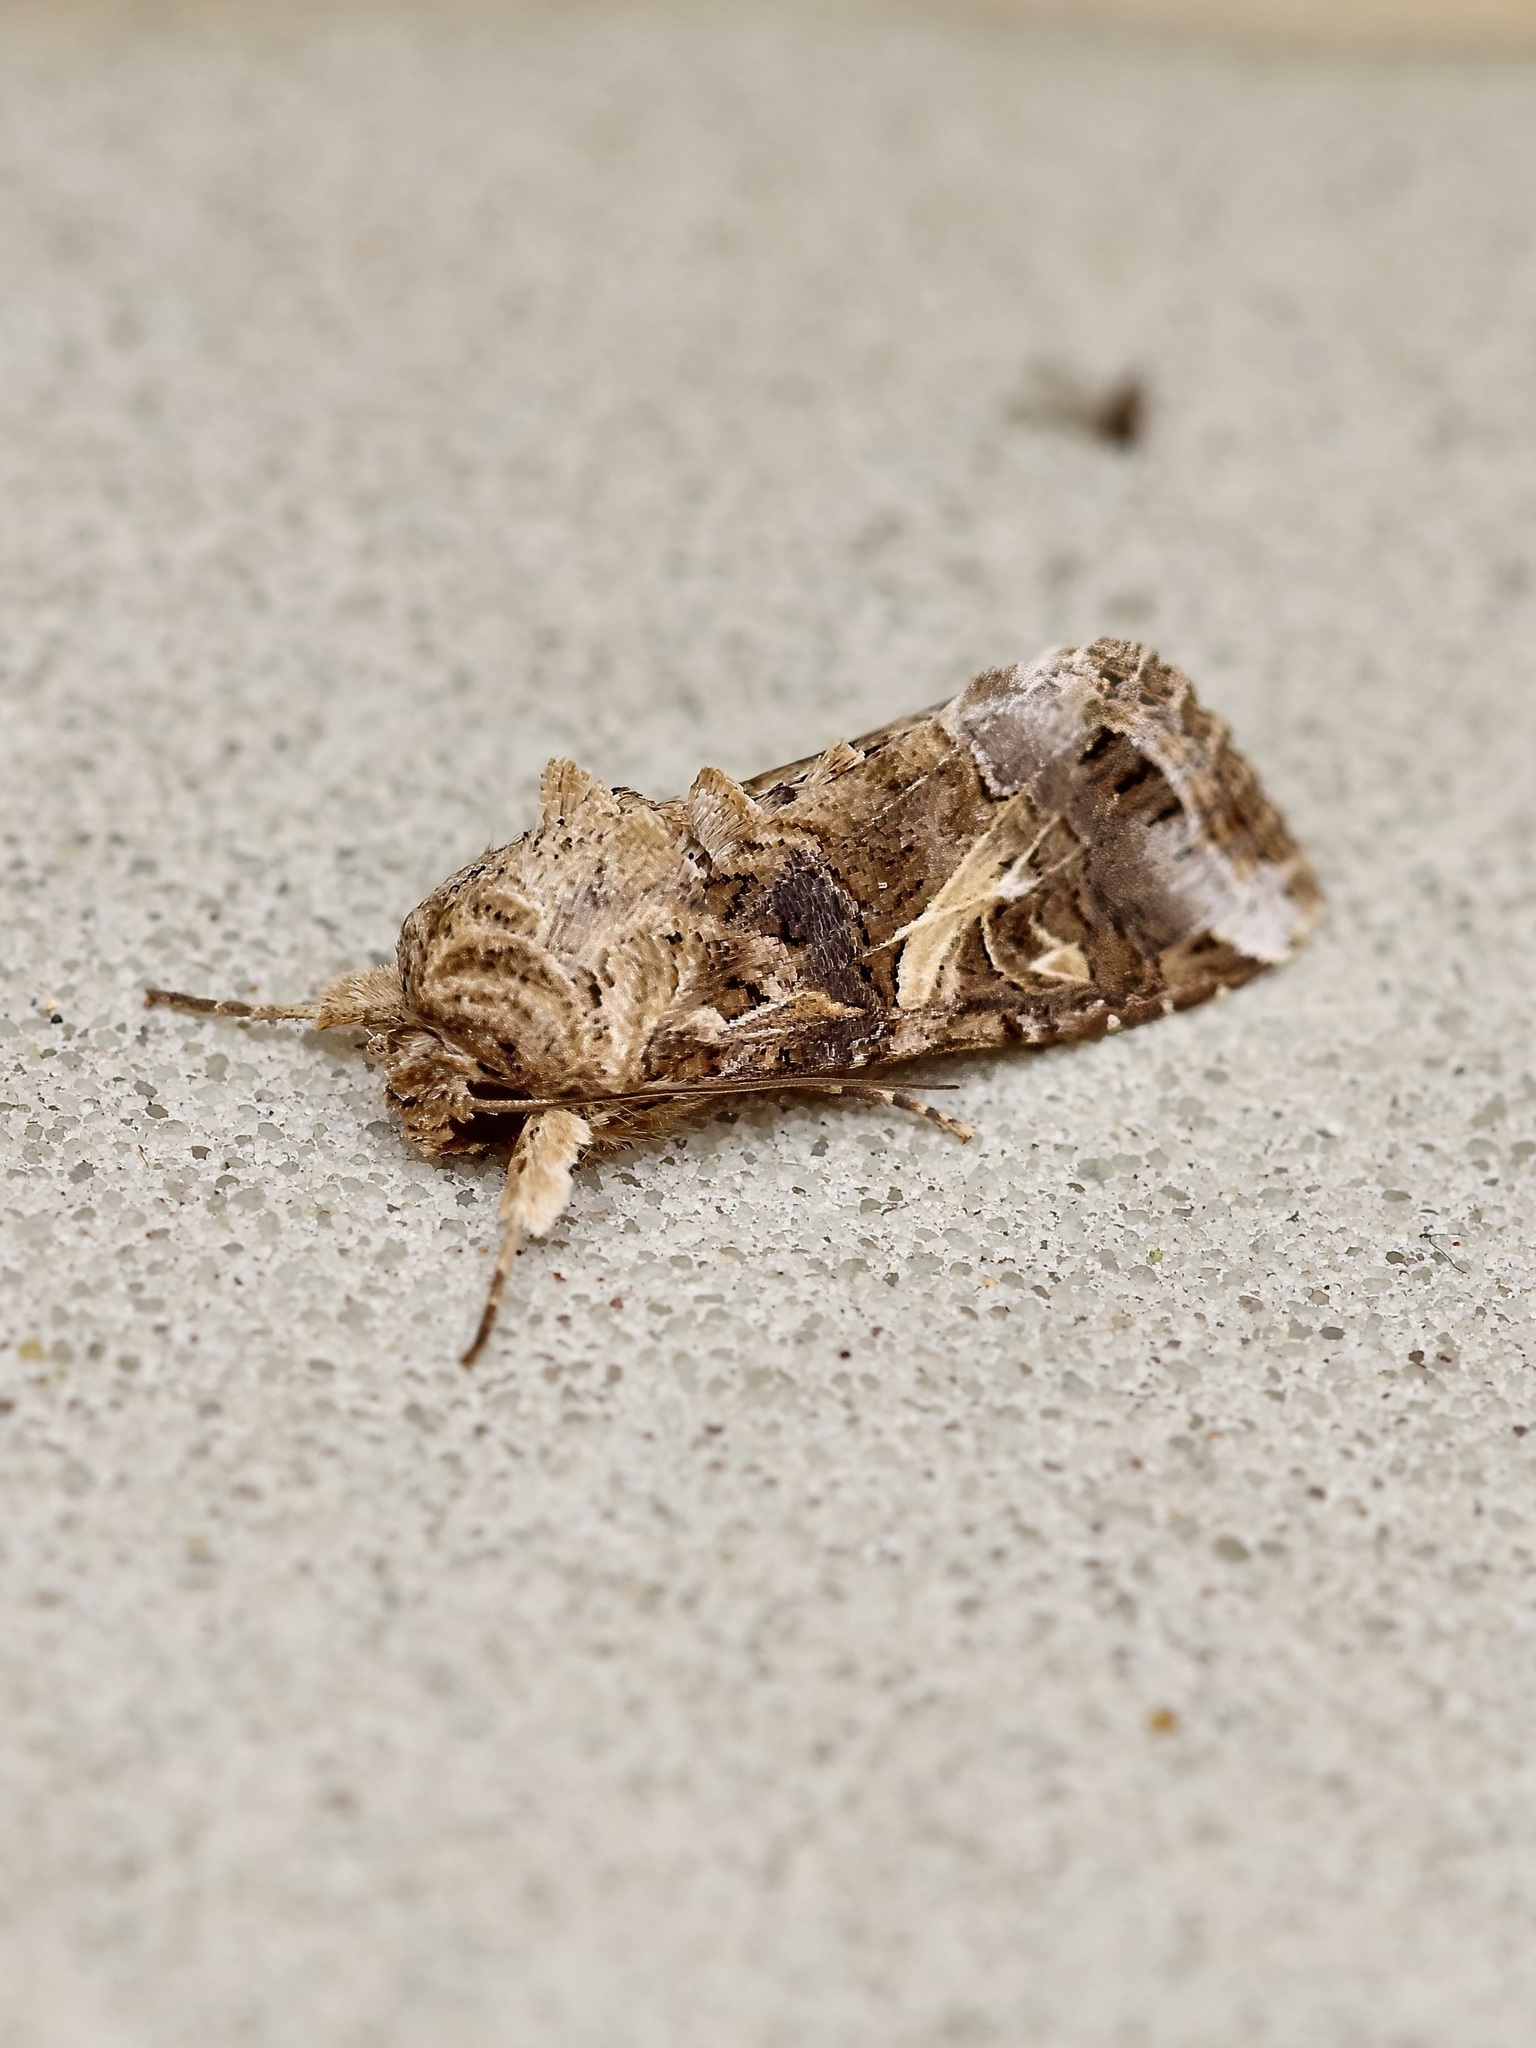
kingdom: Animalia
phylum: Arthropoda
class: Insecta
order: Lepidoptera
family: Noctuidae
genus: Spodoptera
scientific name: Spodoptera ornithogalli
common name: Yellow-striped armyworm
